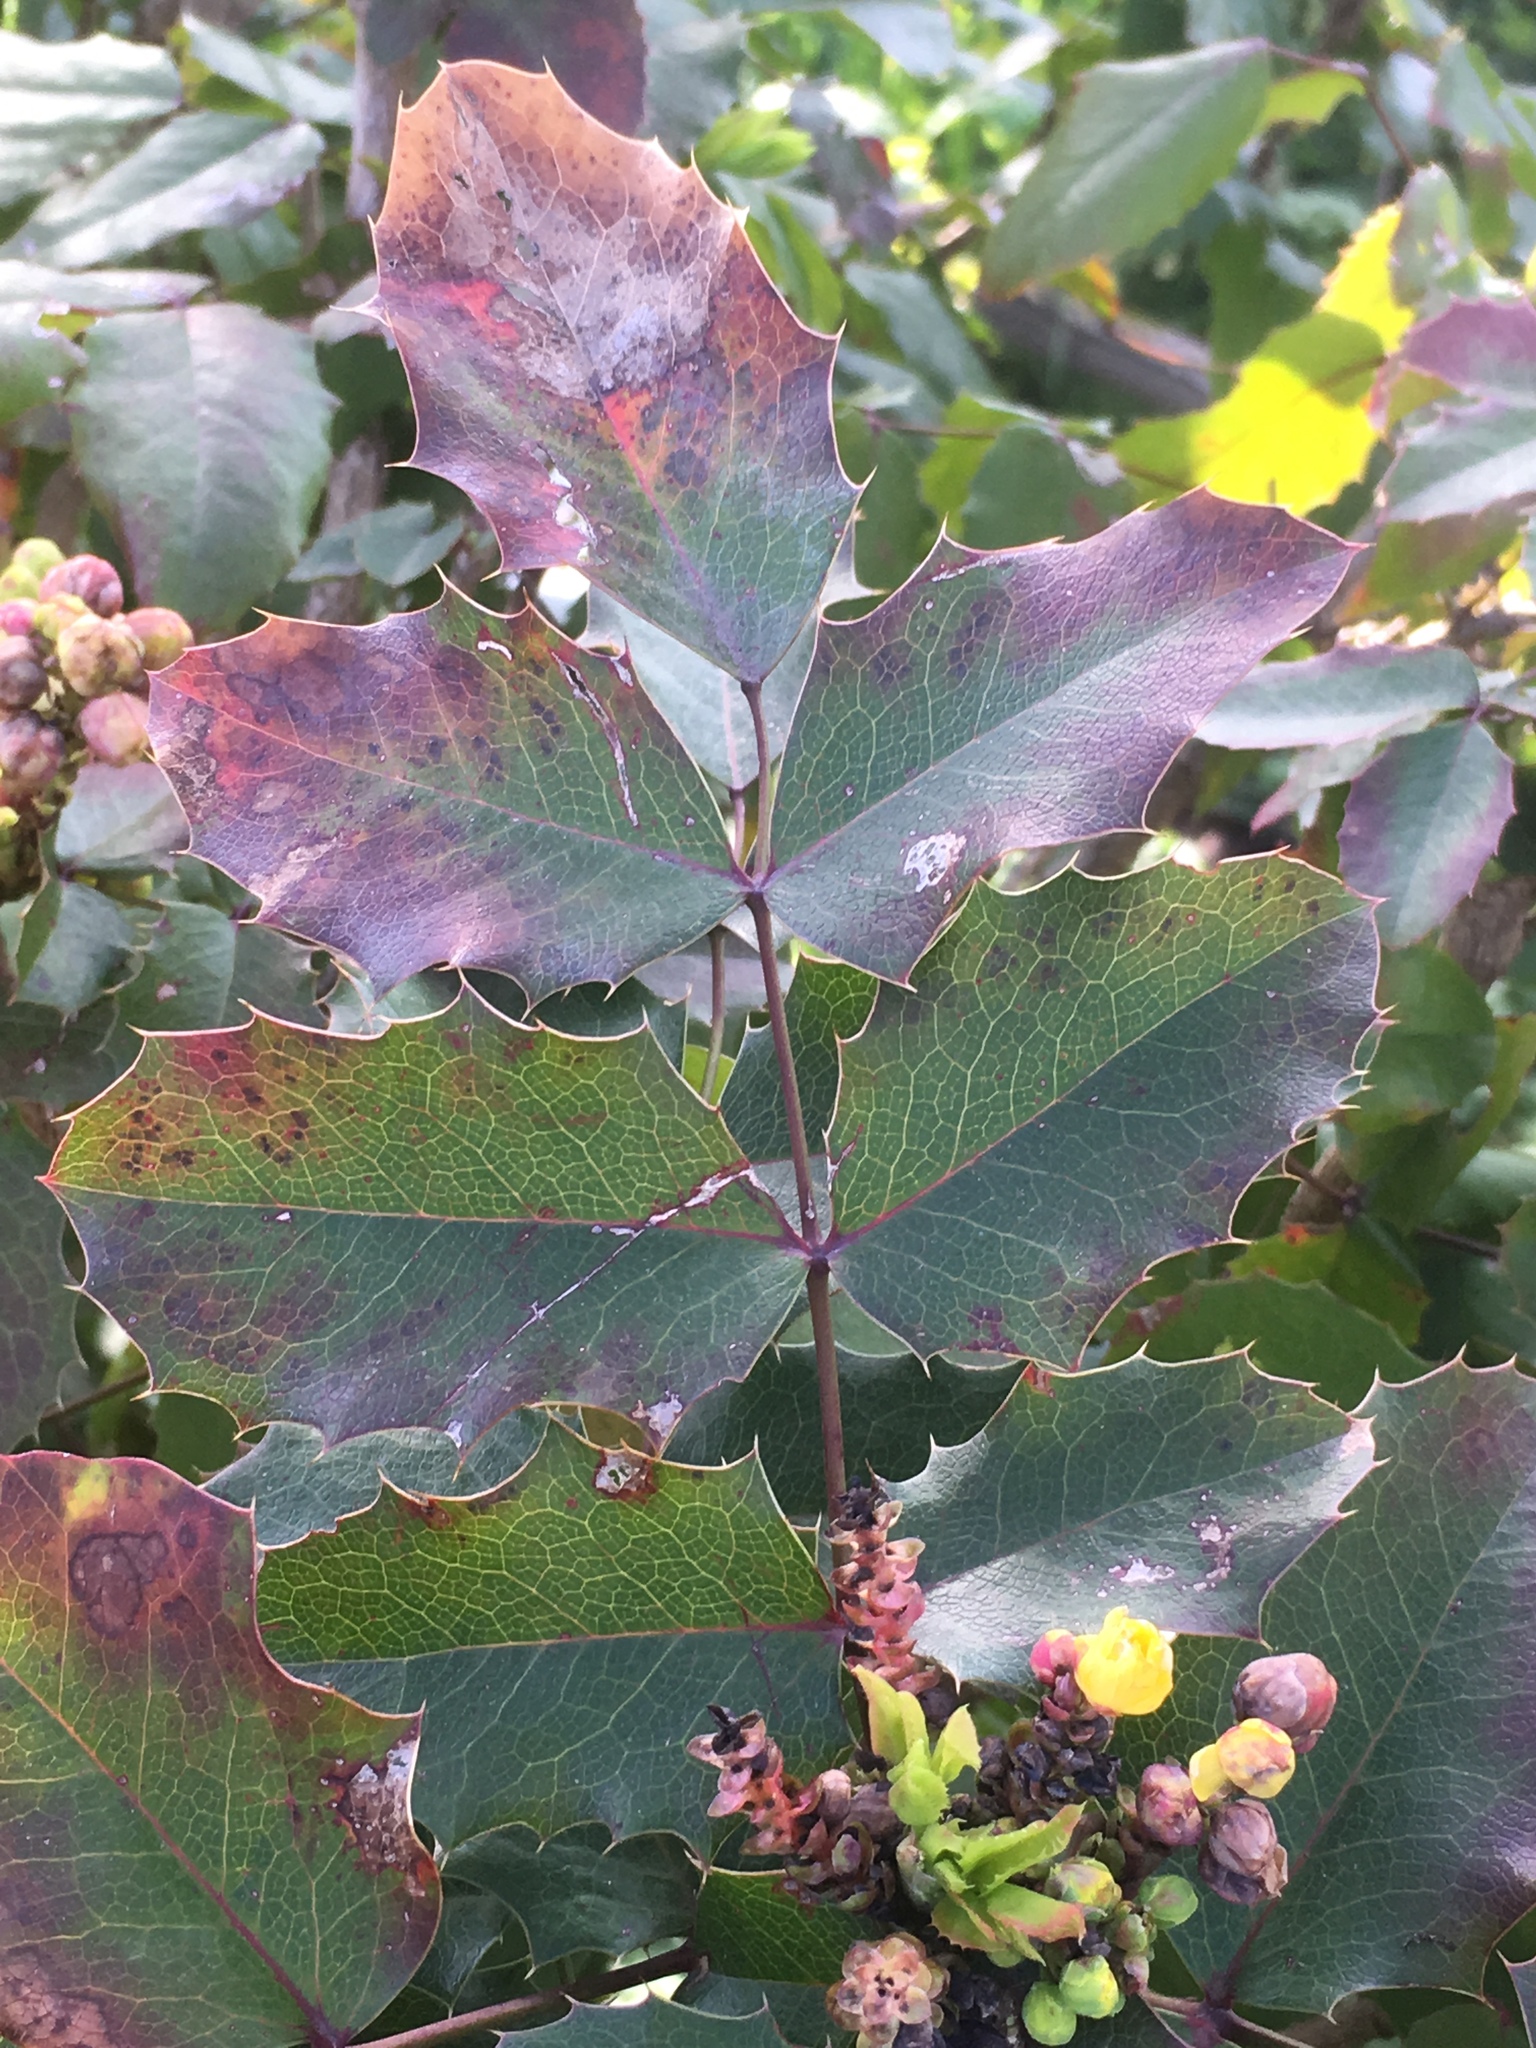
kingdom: Plantae
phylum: Tracheophyta
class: Magnoliopsida
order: Ranunculales
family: Berberidaceae
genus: Mahonia
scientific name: Mahonia aquifolium
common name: Oregon-grape
